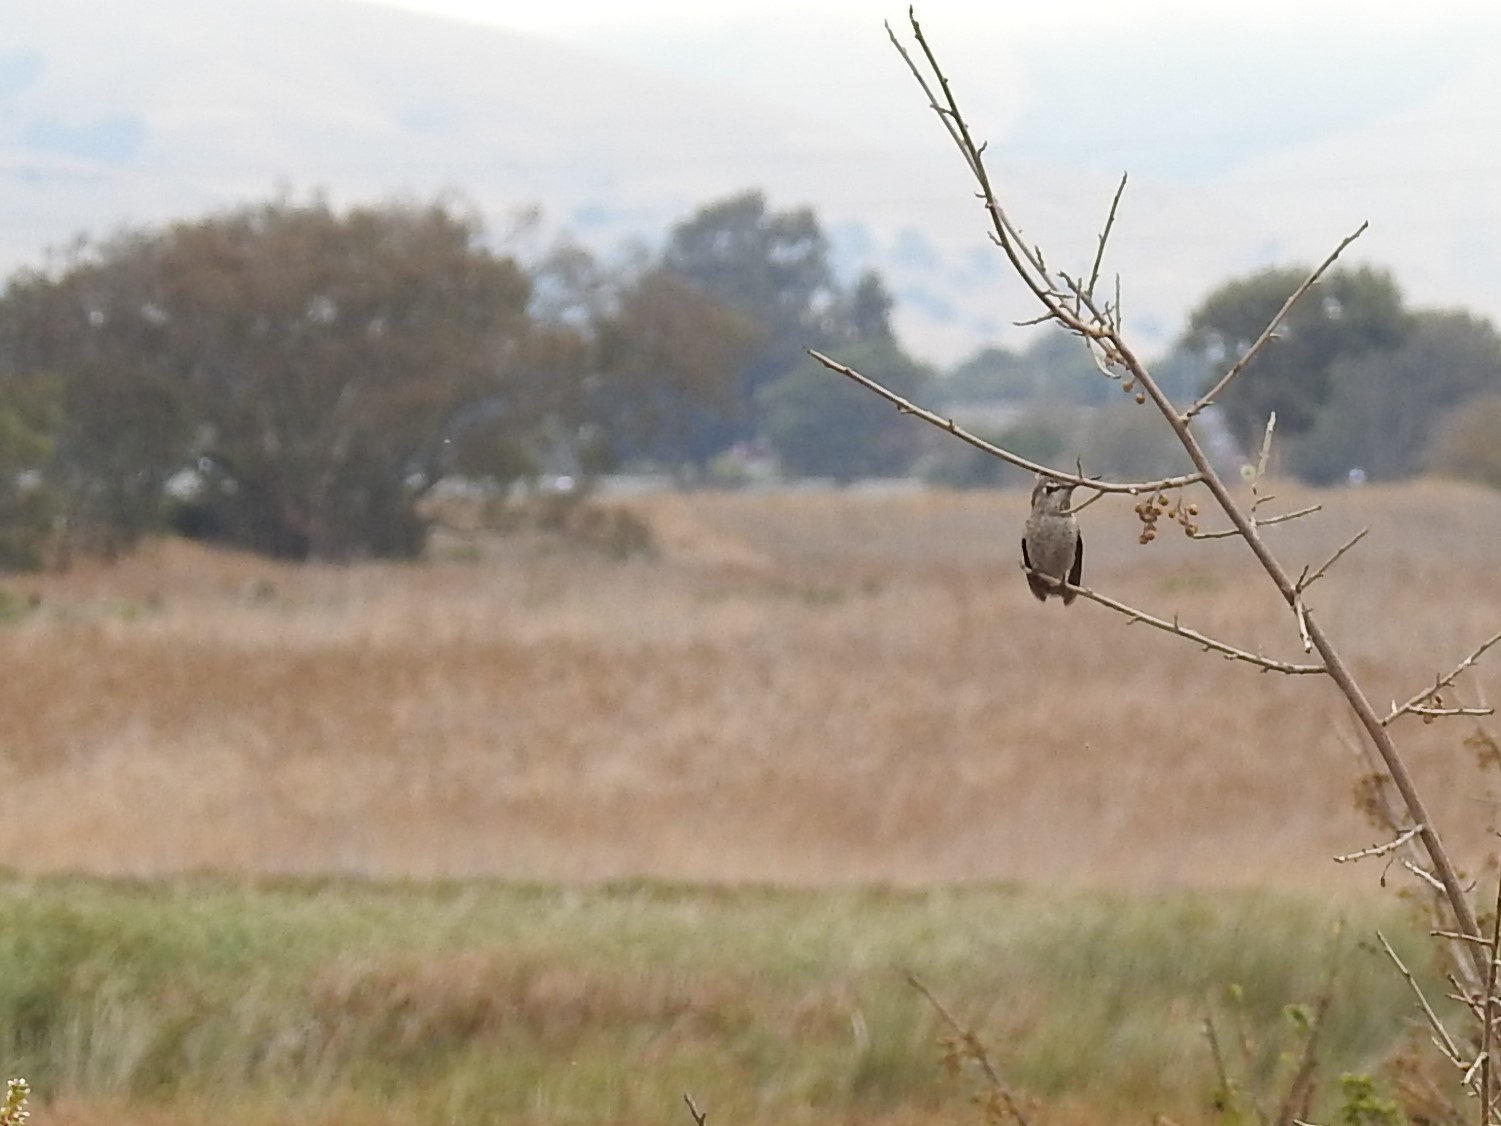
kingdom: Animalia
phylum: Chordata
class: Aves
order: Apodiformes
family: Trochilidae
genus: Calypte
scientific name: Calypte anna
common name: Anna's hummingbird
